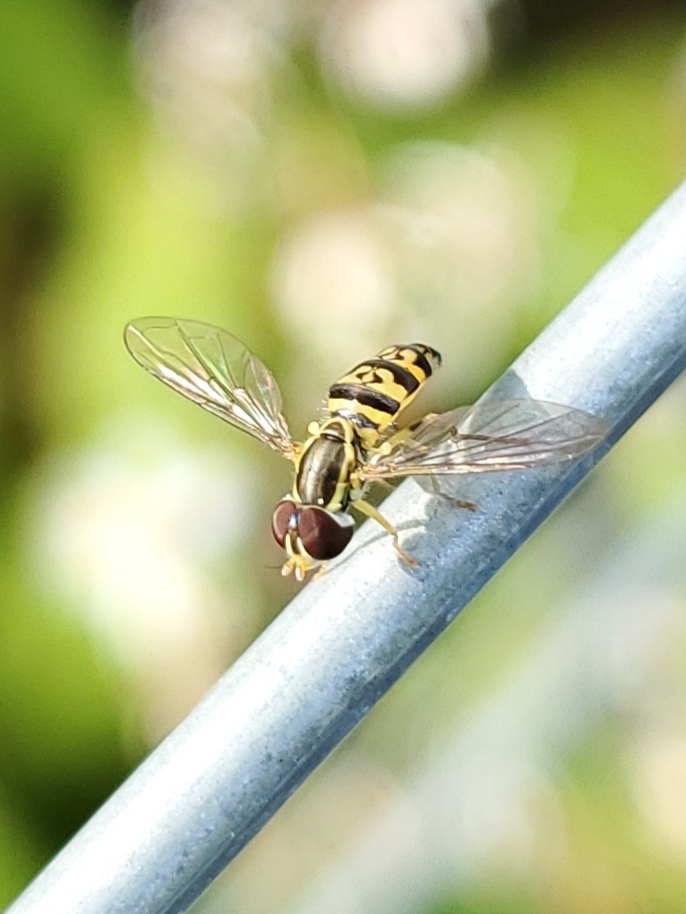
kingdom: Animalia
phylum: Arthropoda
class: Insecta
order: Diptera
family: Syrphidae
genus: Toxomerus
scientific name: Toxomerus geminatus
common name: Eastern calligrapher
